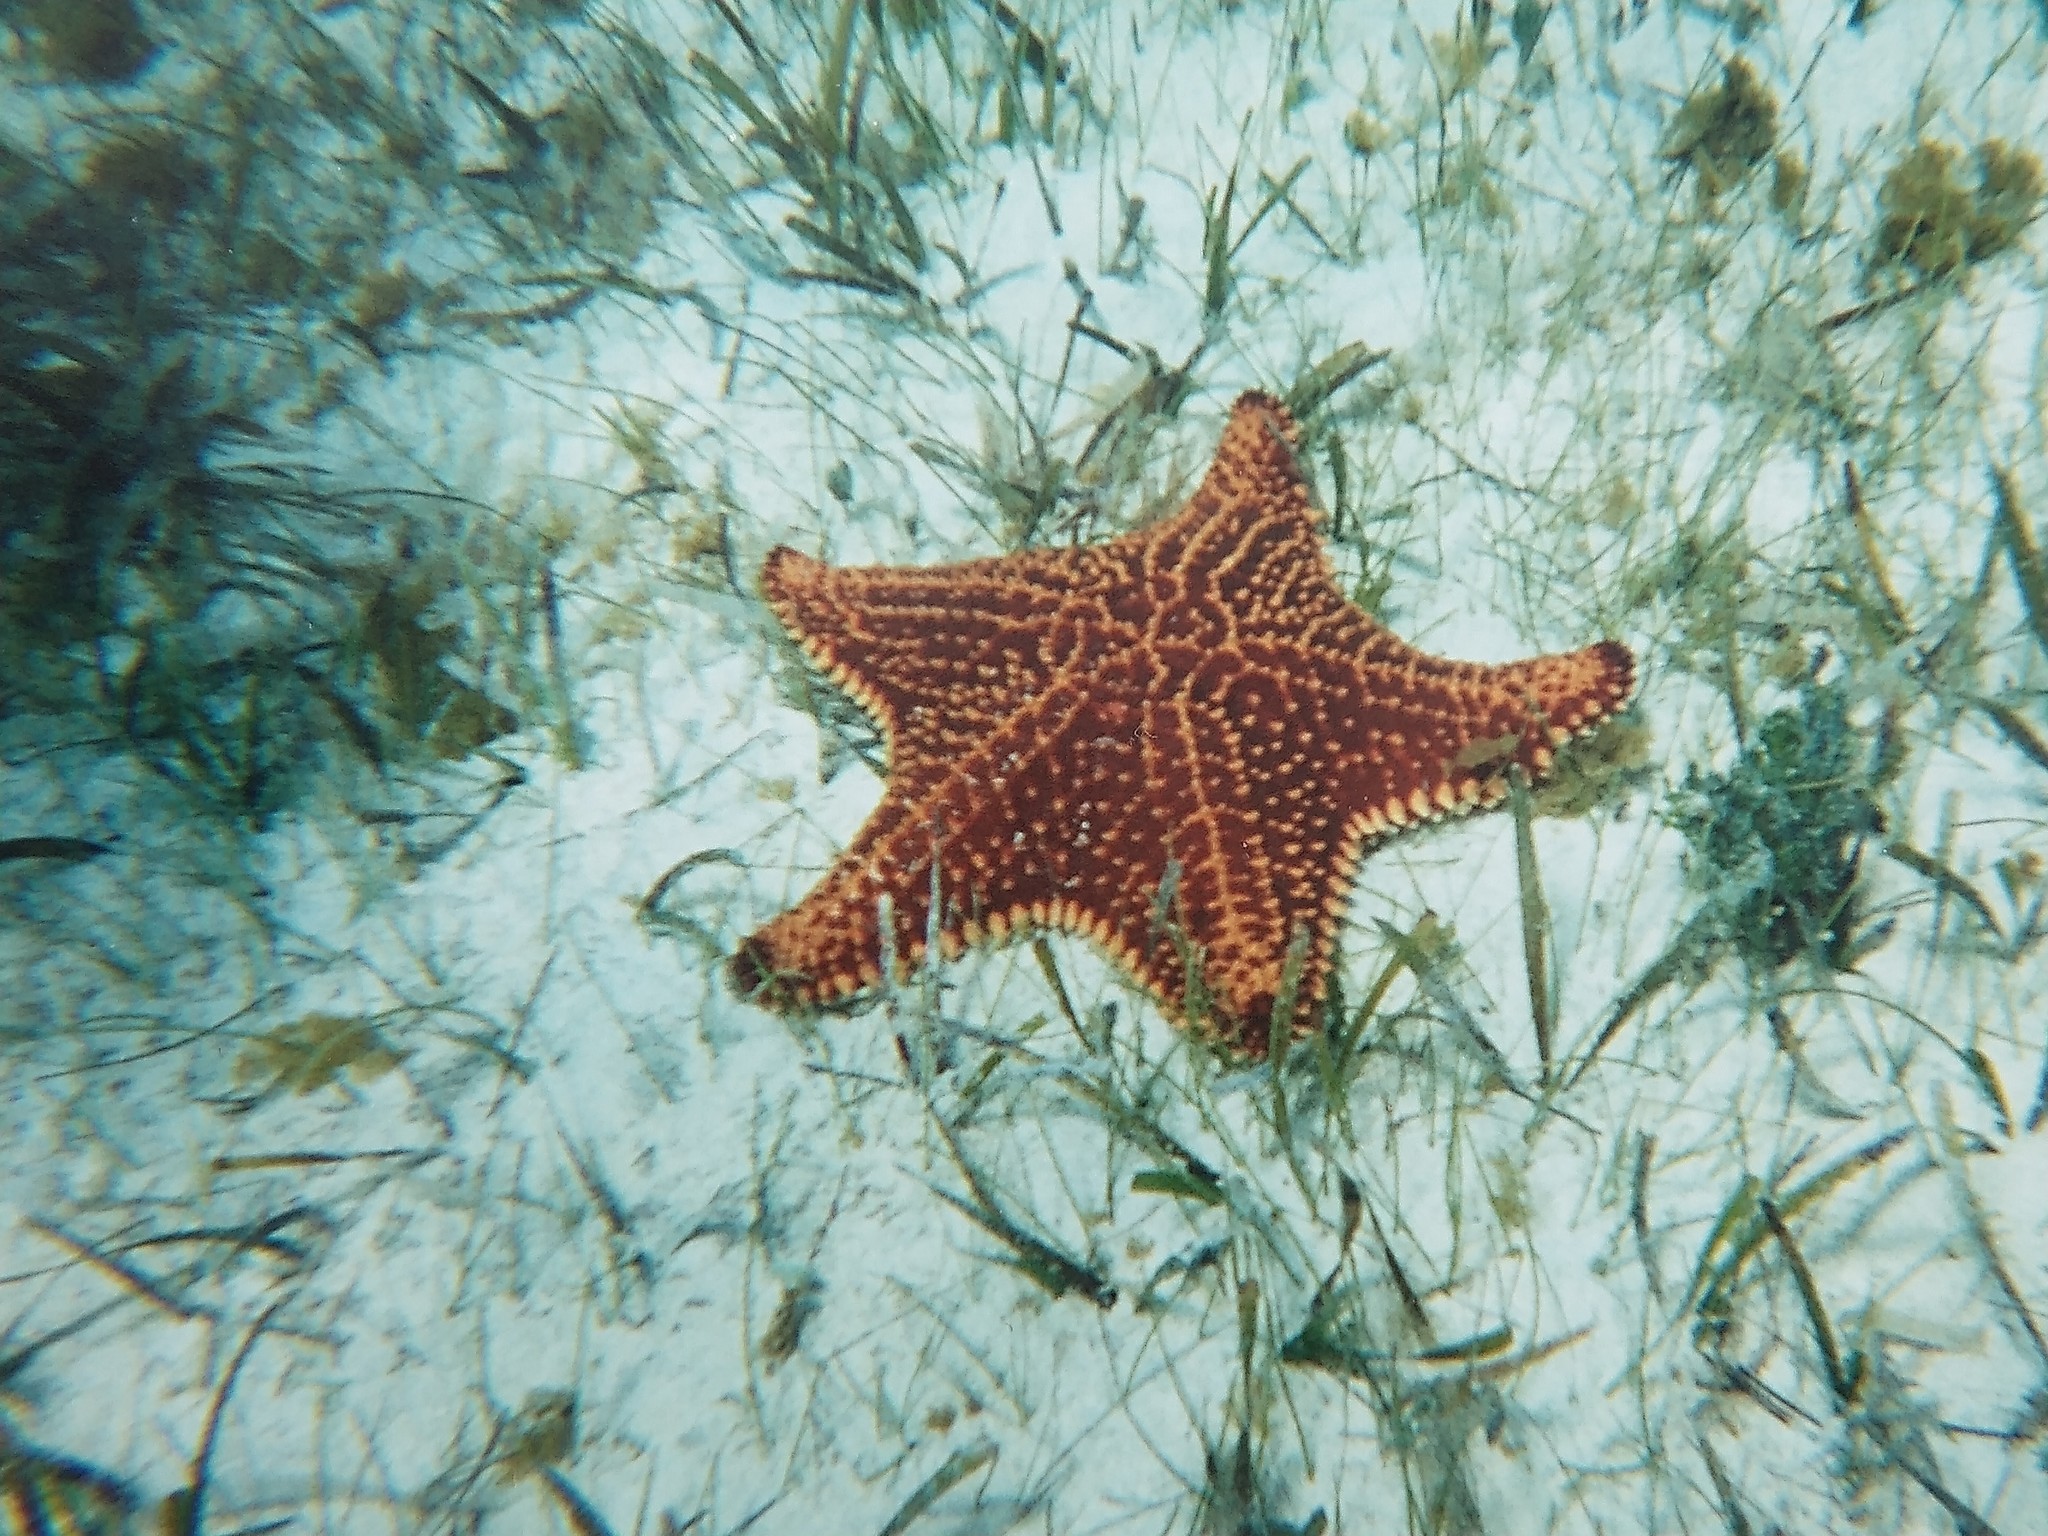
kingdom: Animalia
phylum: Echinodermata
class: Asteroidea
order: Valvatida
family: Oreasteridae
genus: Oreaster
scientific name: Oreaster reticulatus
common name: Cushion sea star
